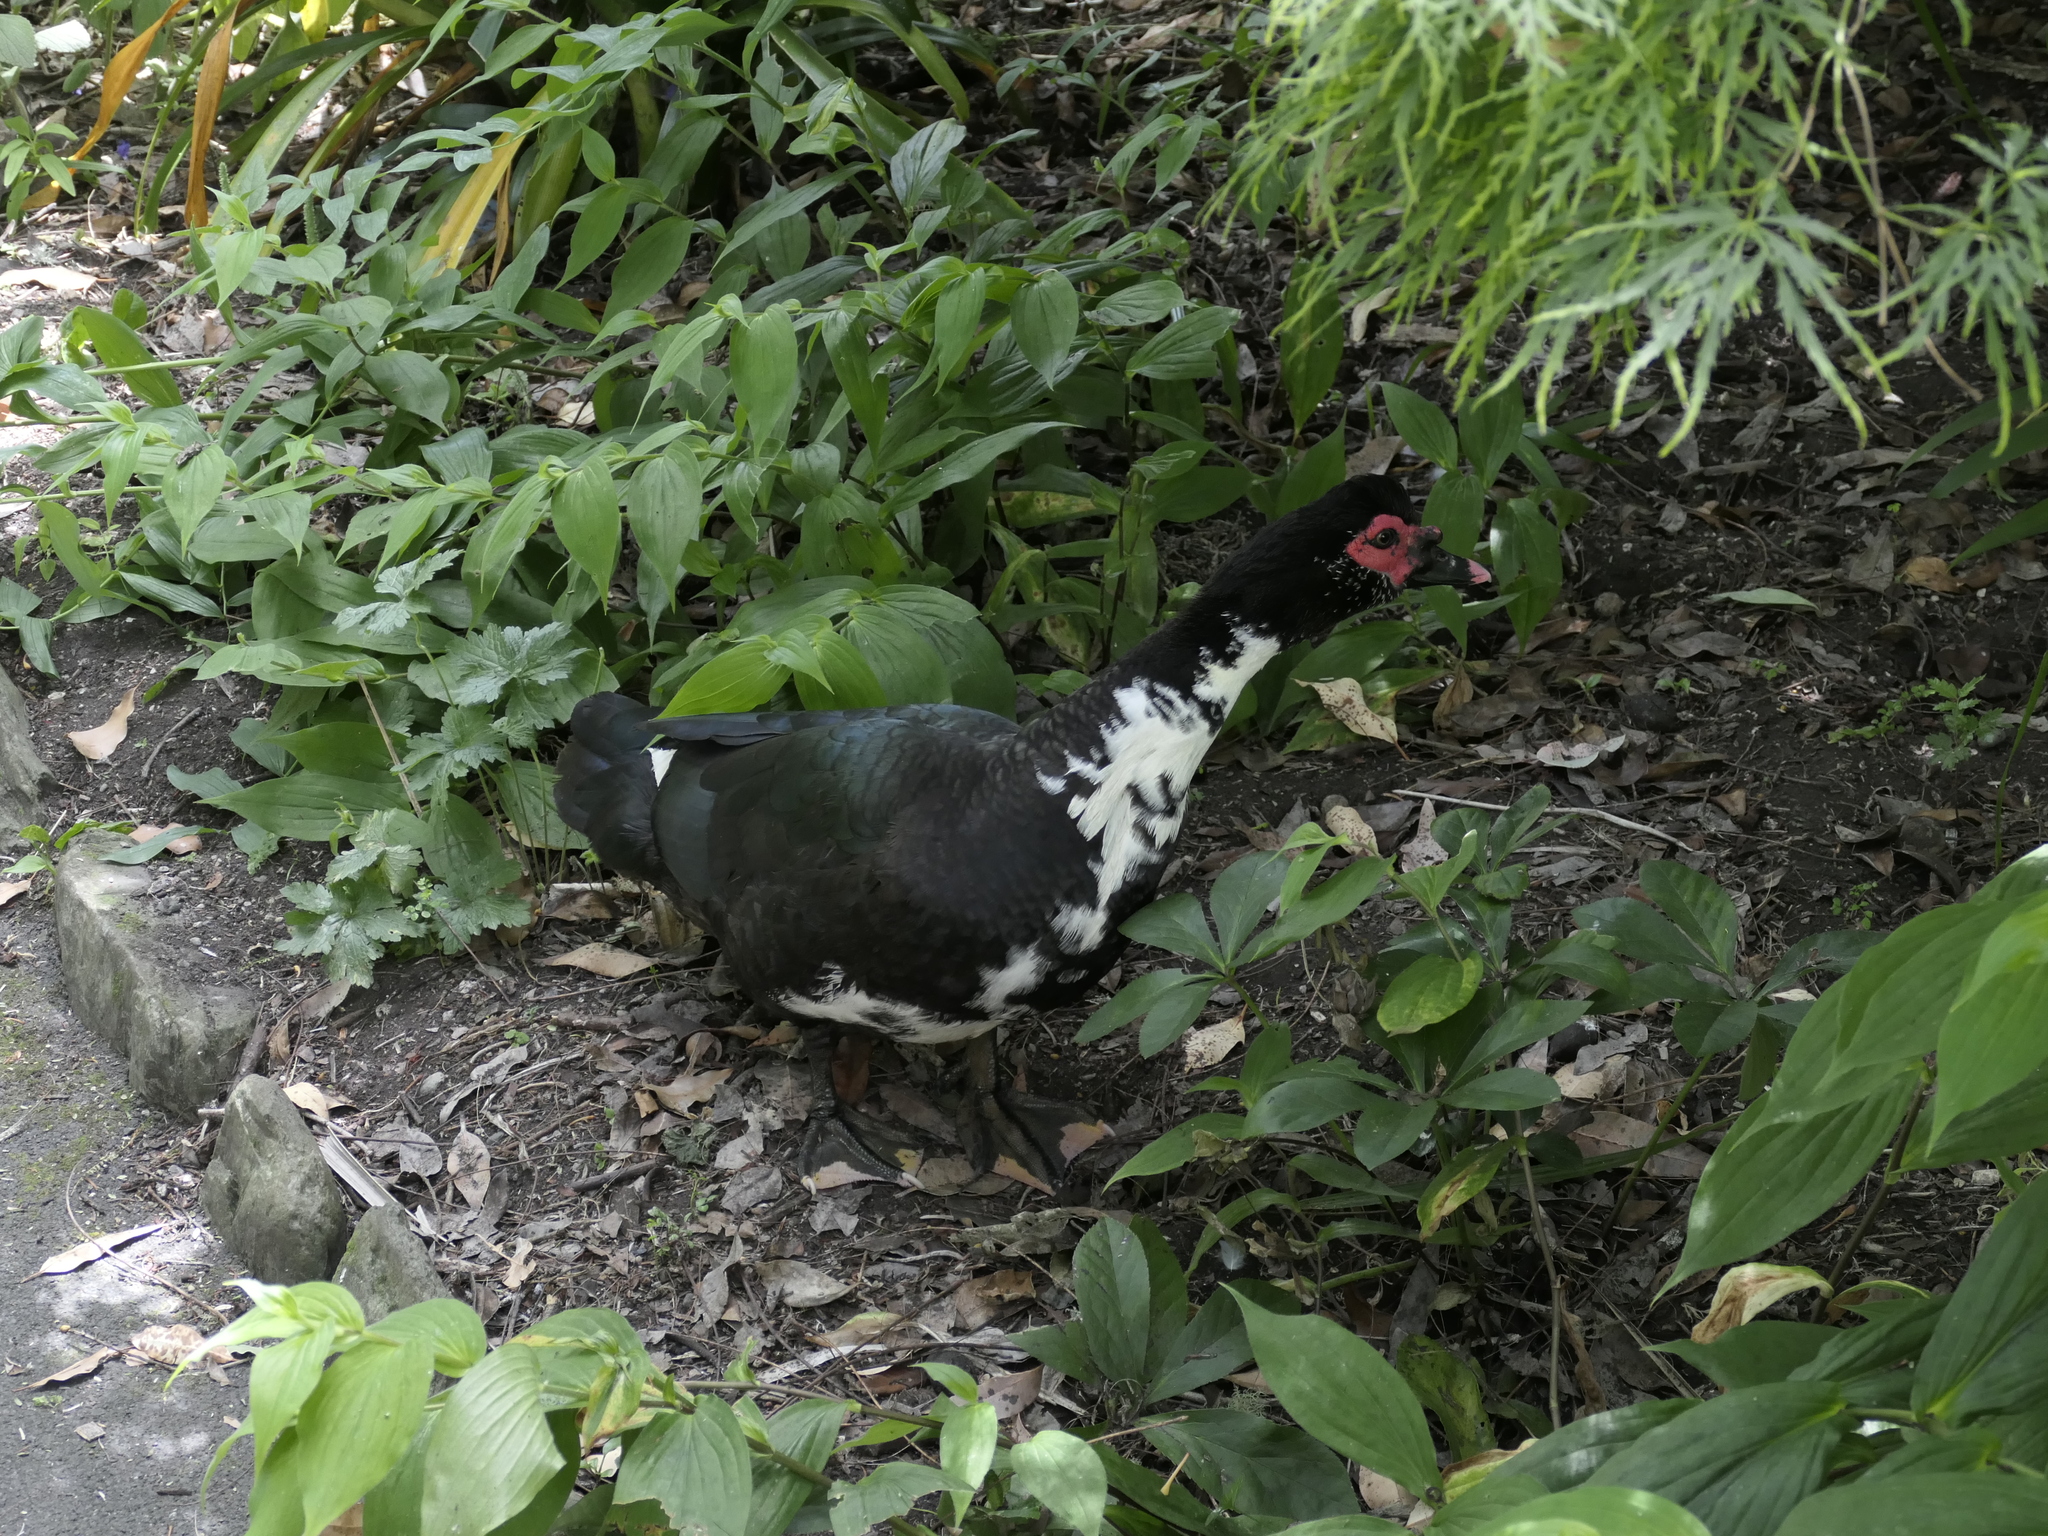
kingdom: Animalia
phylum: Chordata
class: Aves
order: Anseriformes
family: Anatidae
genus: Cairina
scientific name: Cairina moschata
